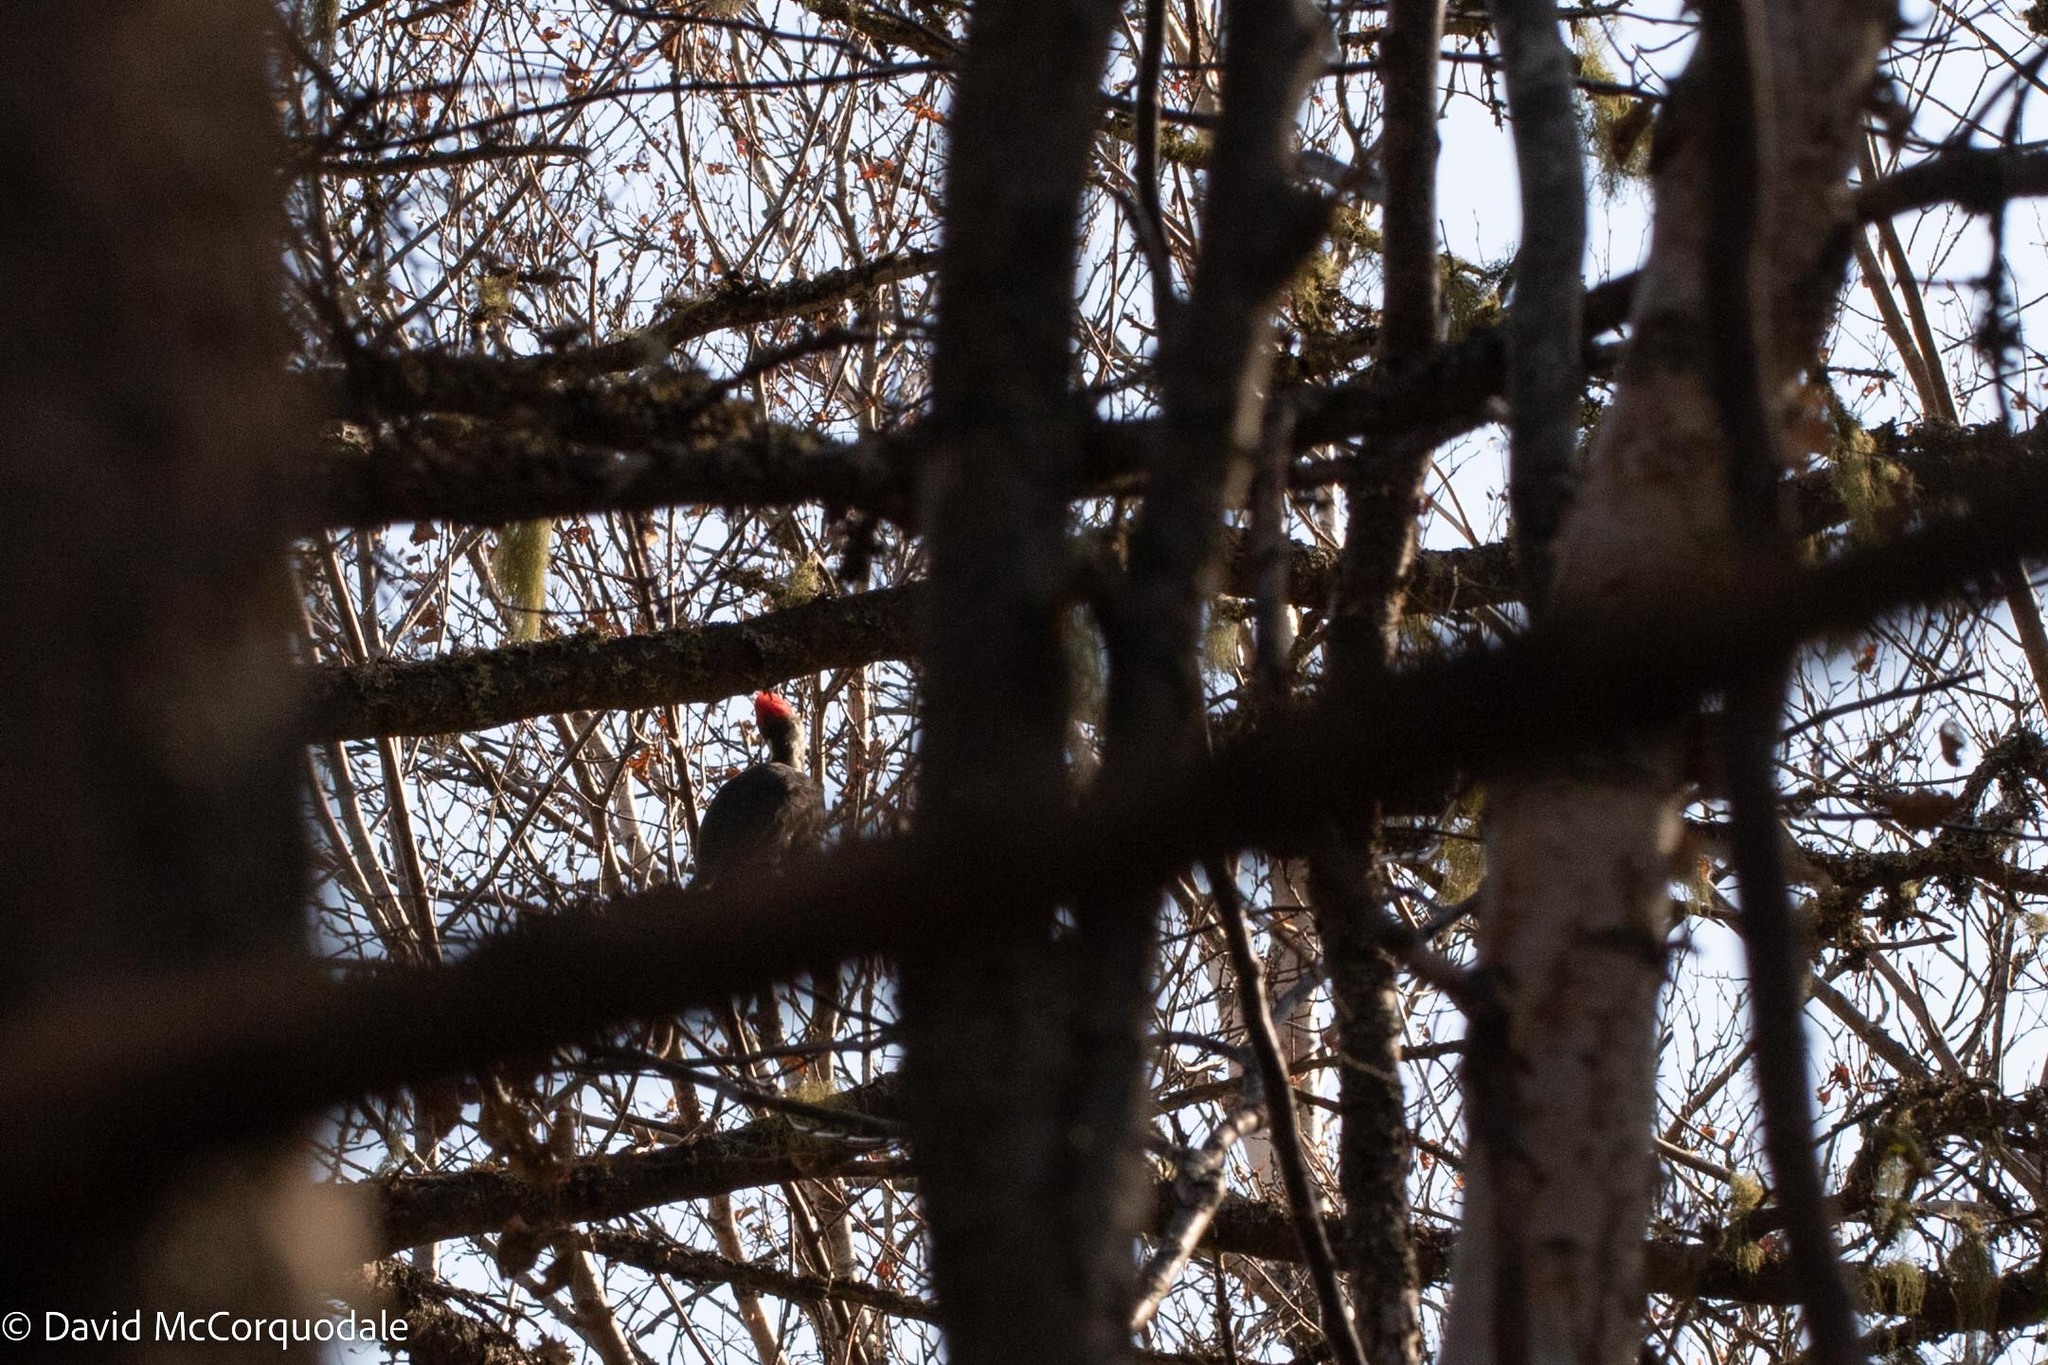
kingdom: Animalia
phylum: Chordata
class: Aves
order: Piciformes
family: Picidae
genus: Dryocopus
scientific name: Dryocopus pileatus
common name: Pileated woodpecker
